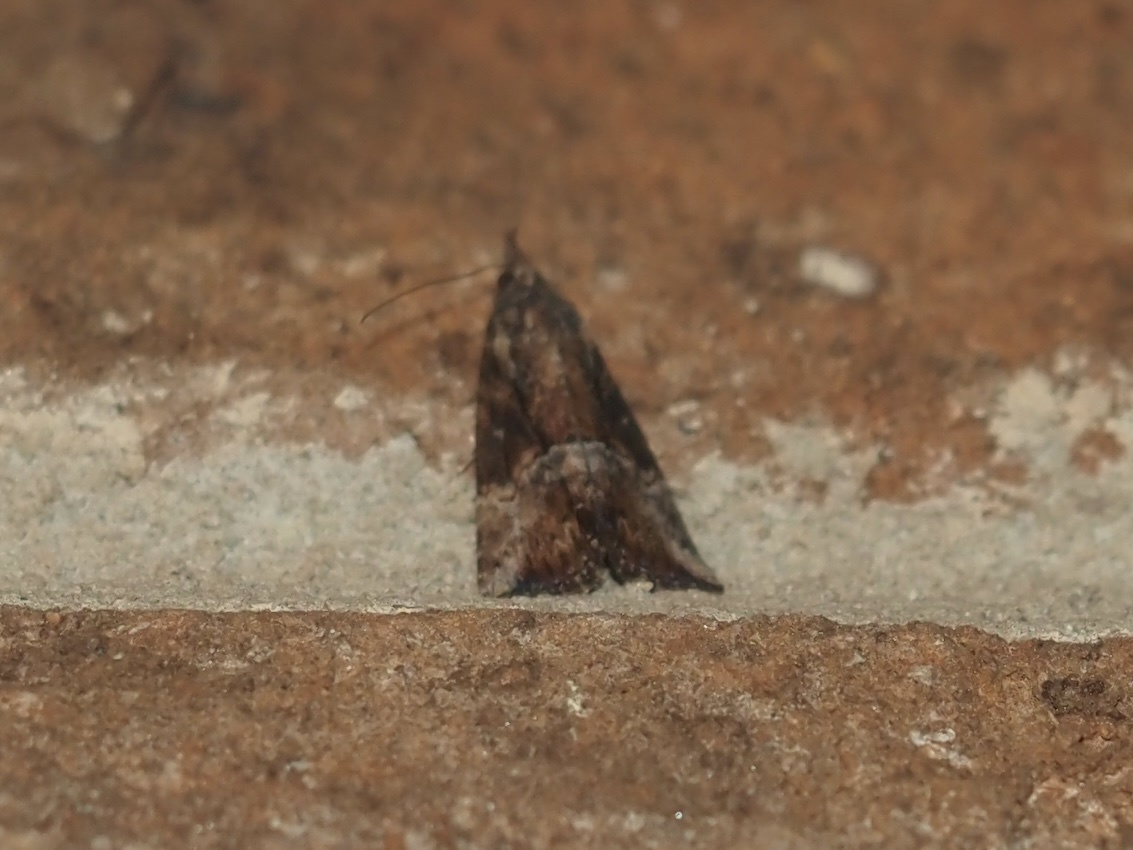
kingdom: Animalia
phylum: Arthropoda
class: Insecta
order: Lepidoptera
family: Erebidae
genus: Hypena
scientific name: Hypena scabra
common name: Green cloverworm
